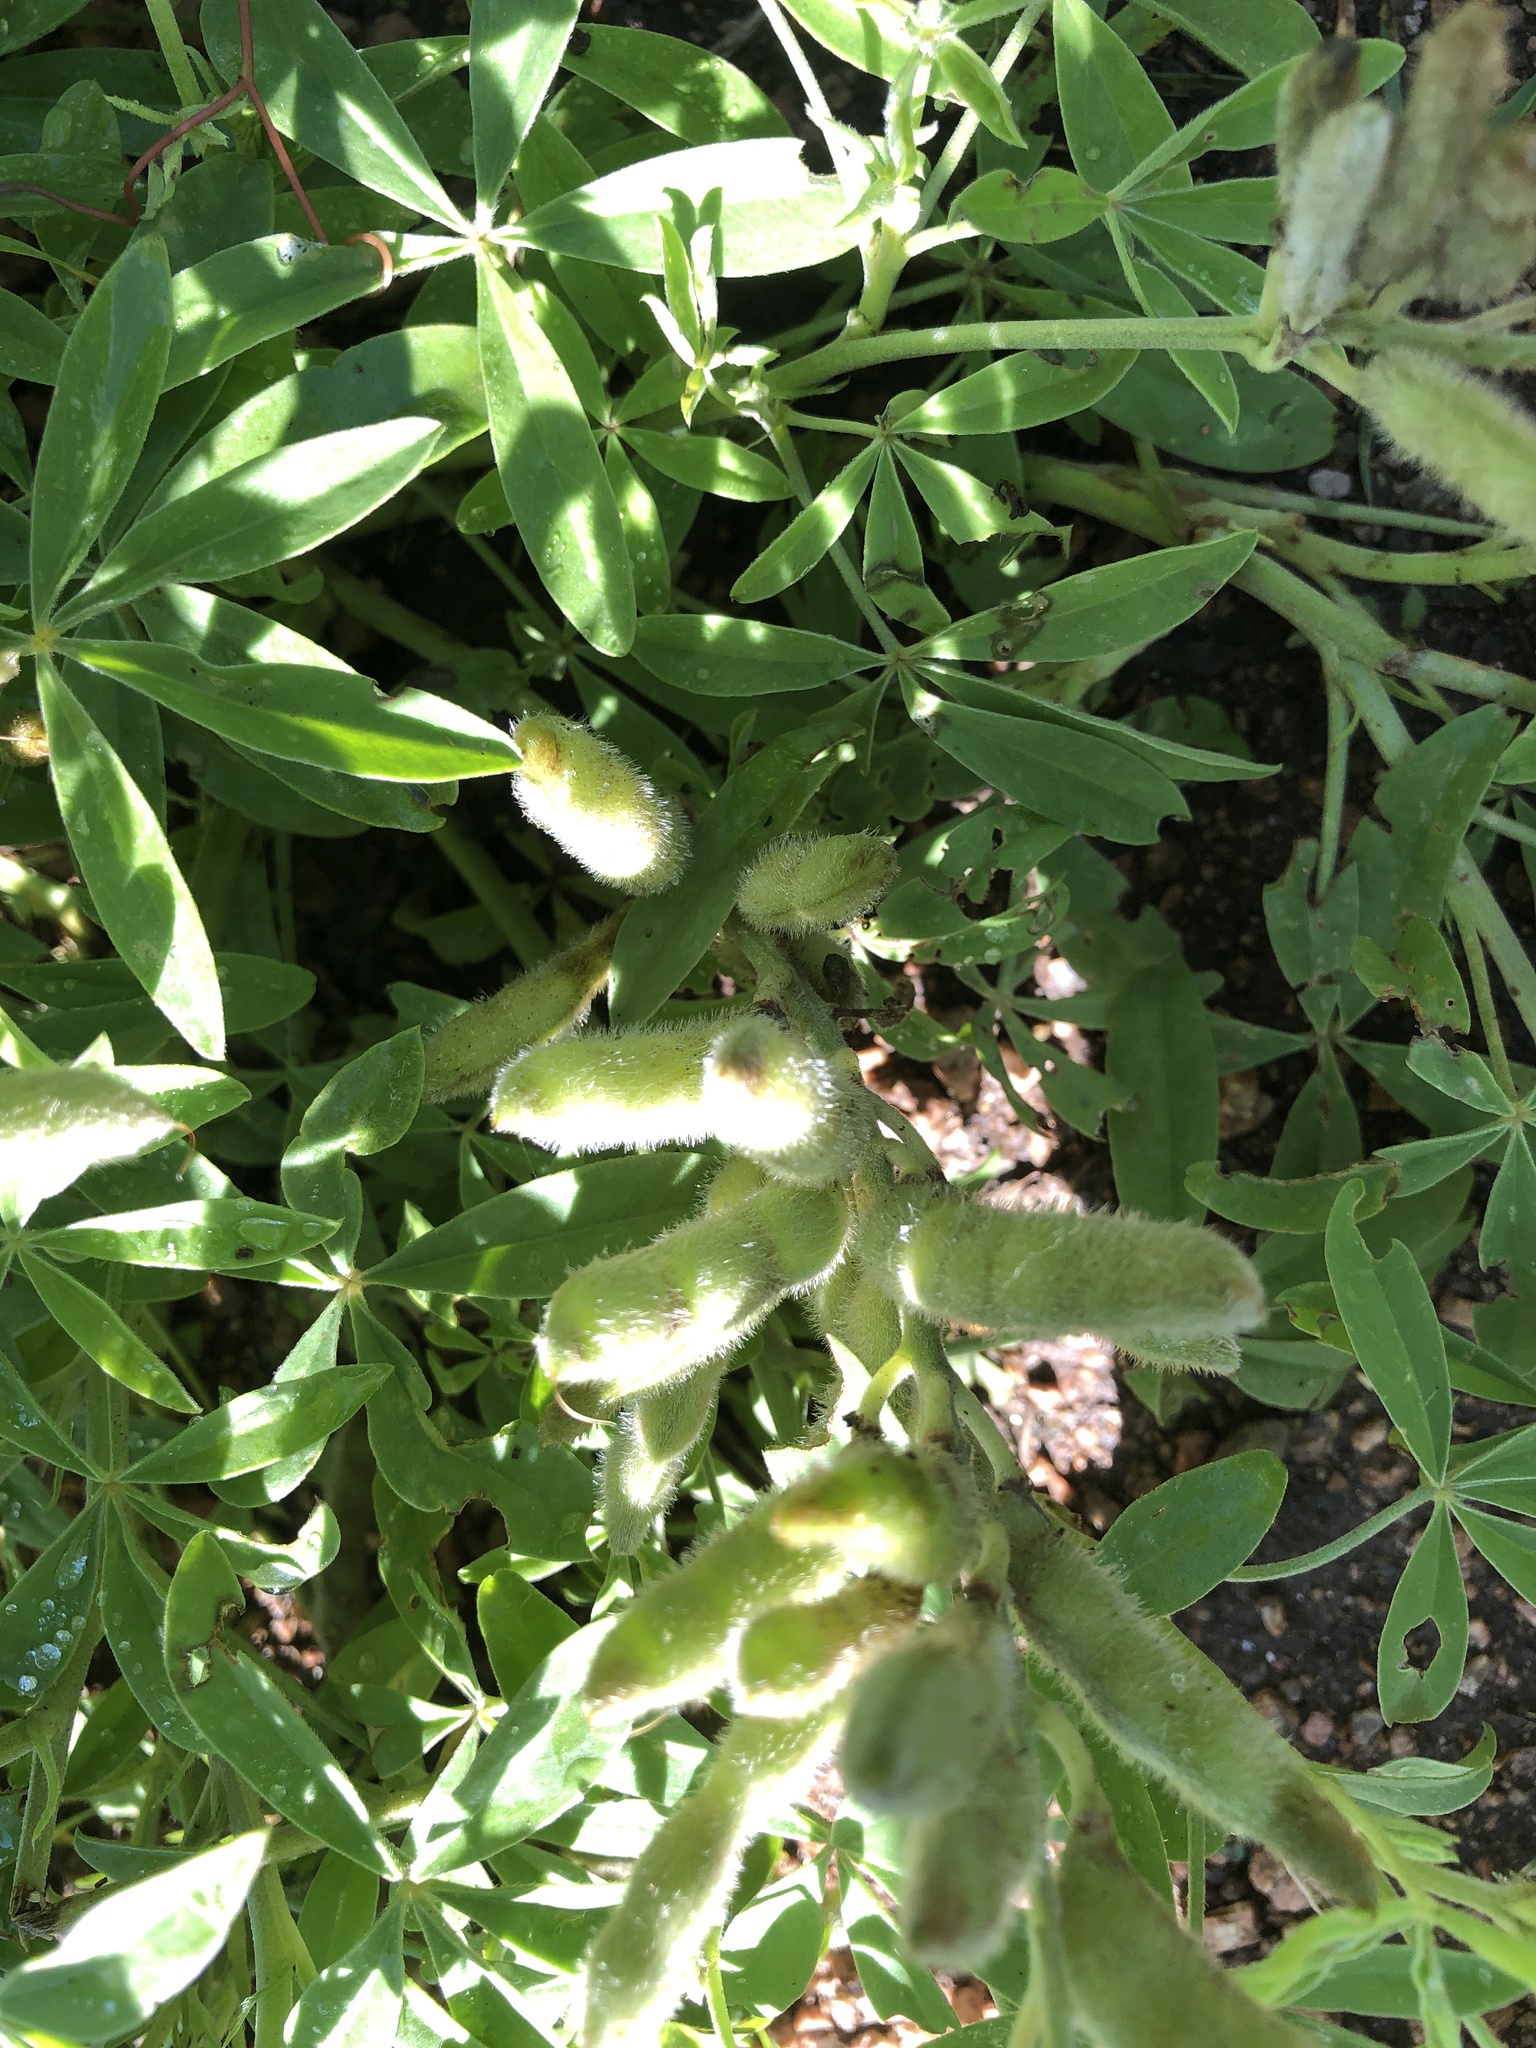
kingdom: Plantae
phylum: Tracheophyta
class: Magnoliopsida
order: Fabales
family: Fabaceae
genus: Lupinus
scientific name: Lupinus texensis
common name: Texas bluebonnet
